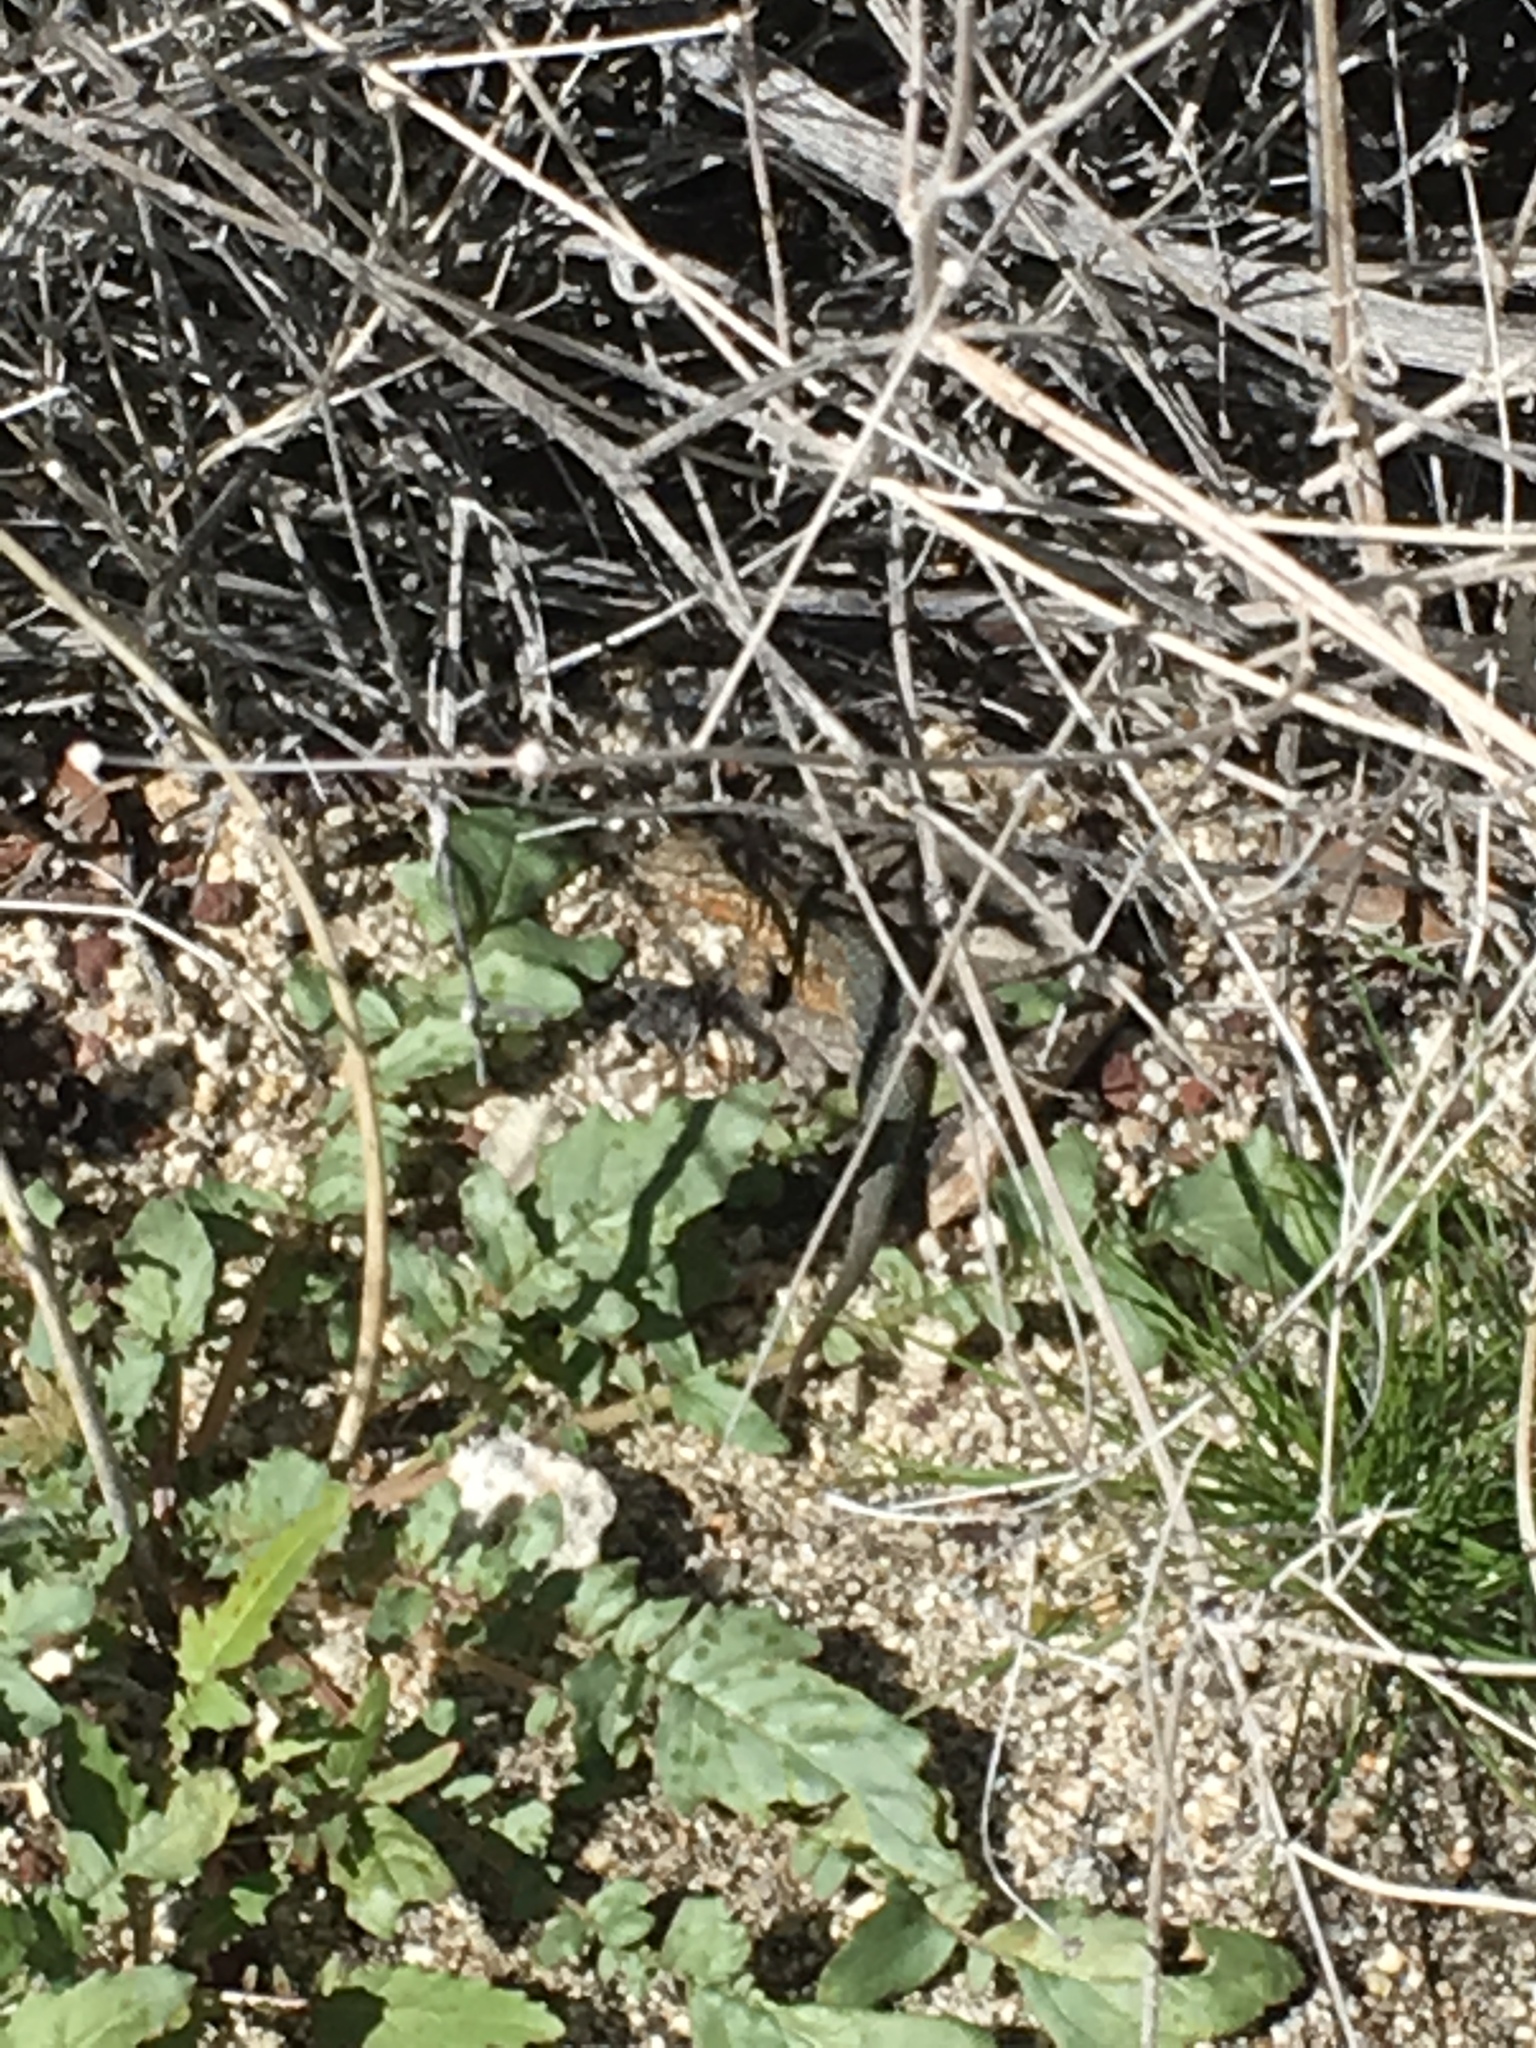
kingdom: Animalia
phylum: Chordata
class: Squamata
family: Phrynosomatidae
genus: Uta
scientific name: Uta stansburiana
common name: Side-blotched lizard
